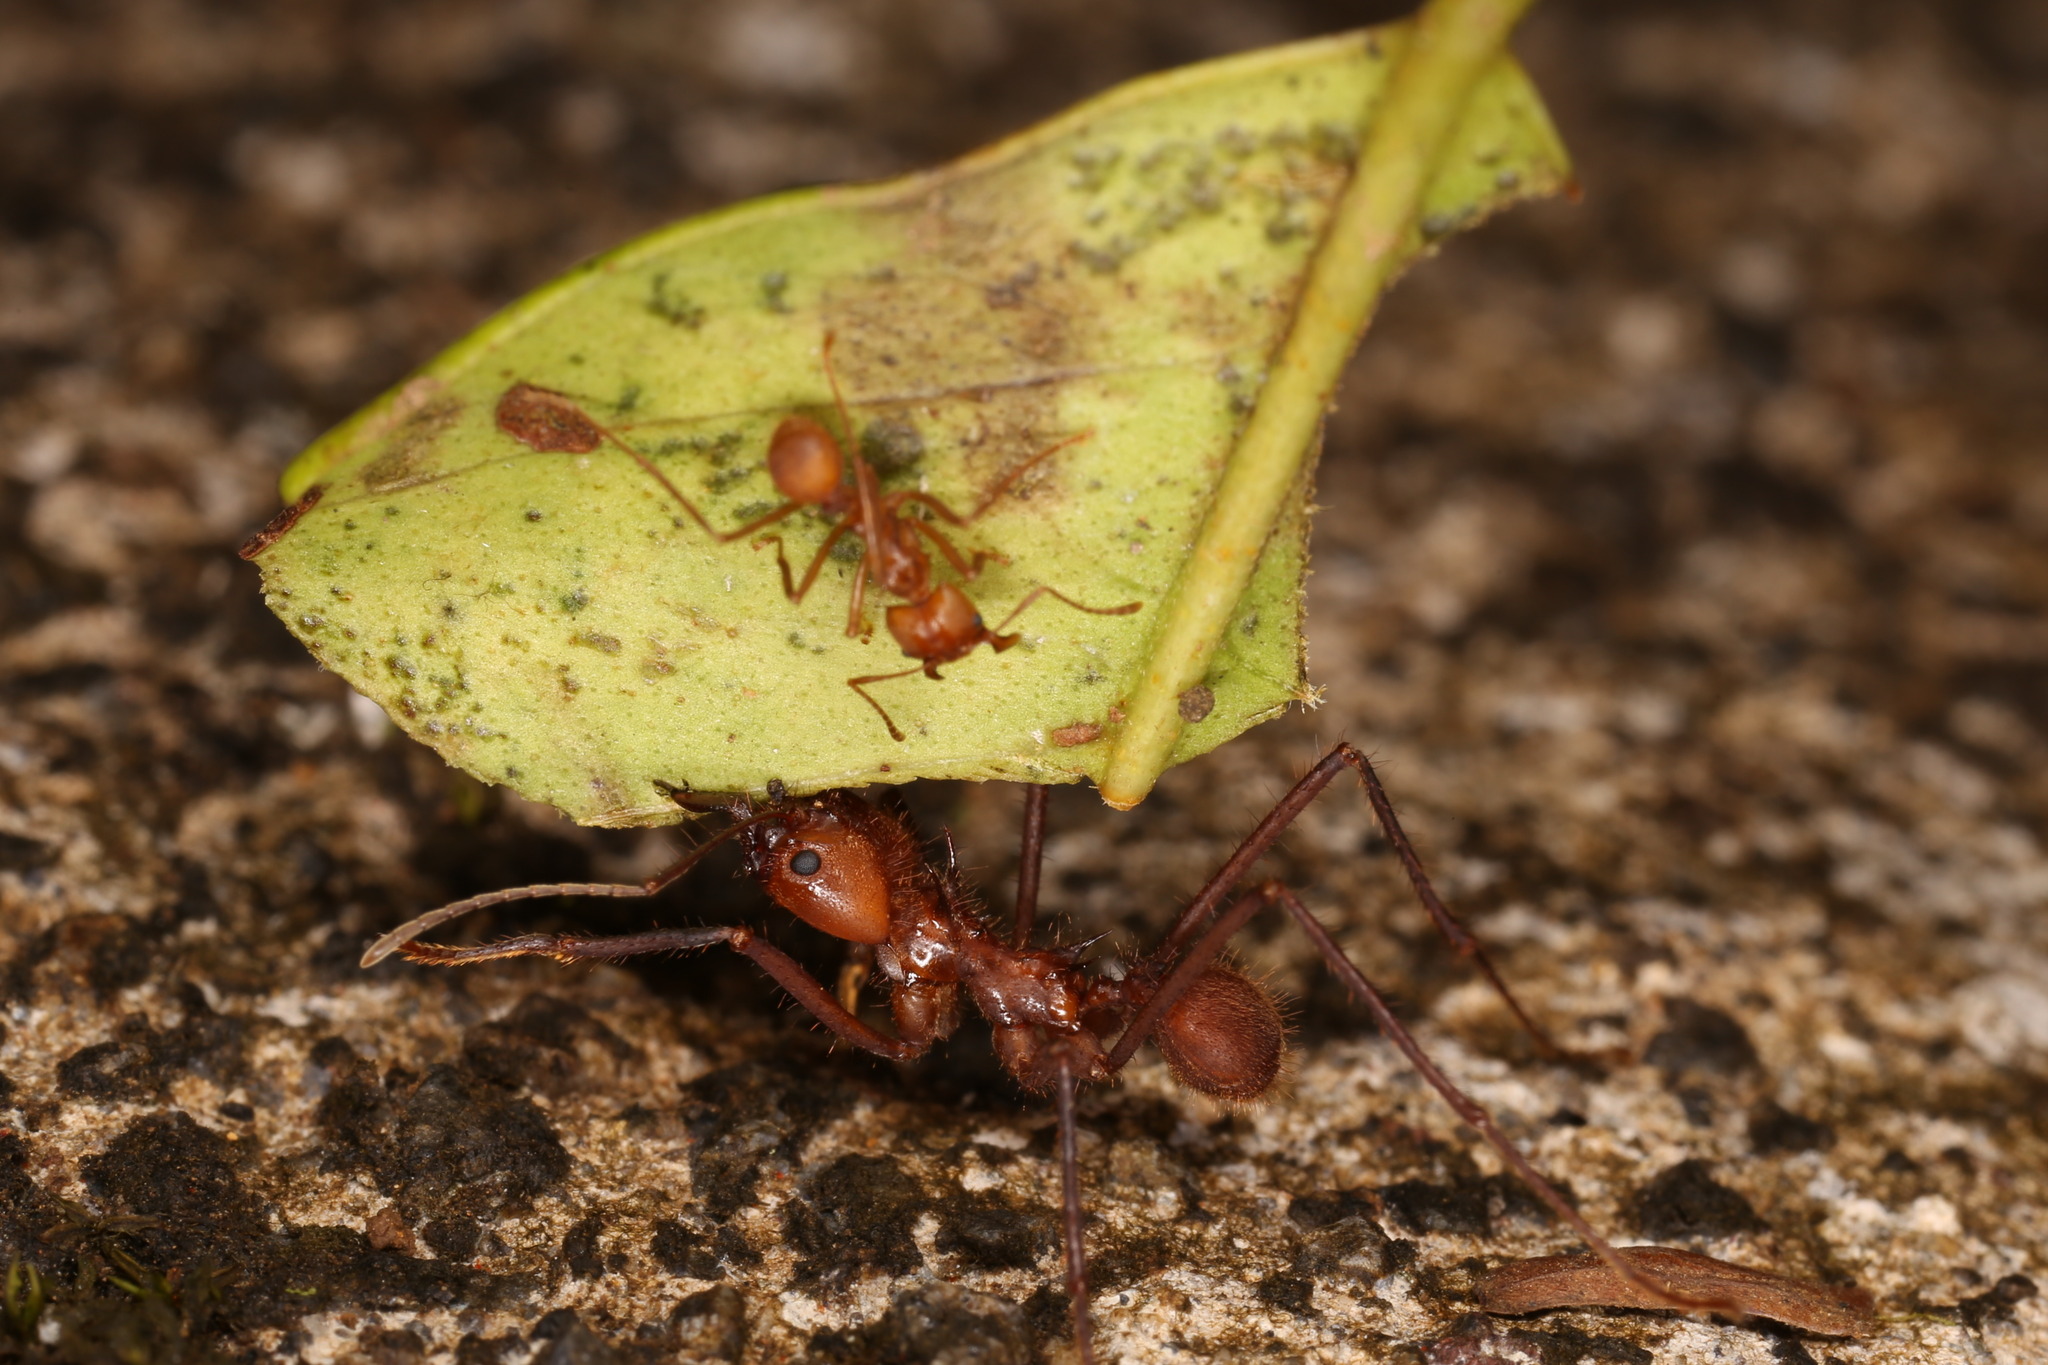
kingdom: Animalia
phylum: Arthropoda
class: Insecta
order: Hymenoptera
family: Formicidae
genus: Atta
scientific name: Atta cephalotes
